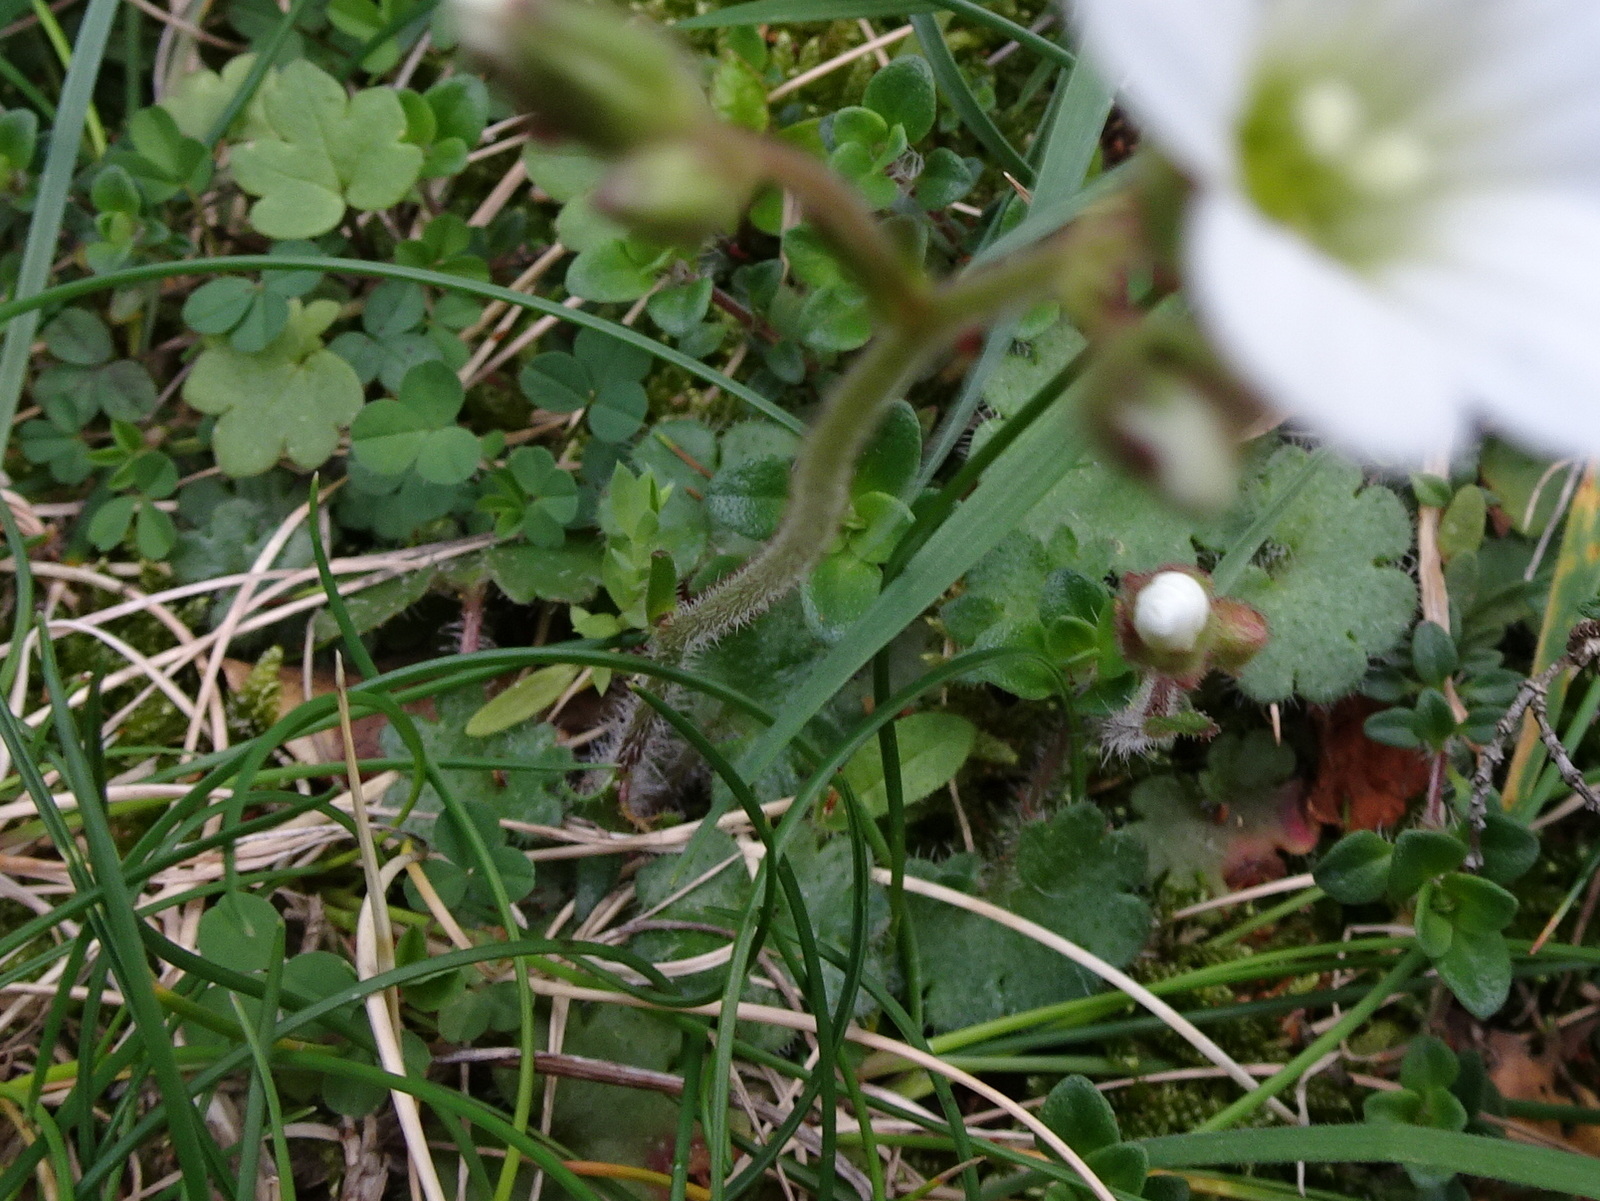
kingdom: Plantae
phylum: Tracheophyta
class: Magnoliopsida
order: Saxifragales
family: Saxifragaceae
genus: Saxifraga
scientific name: Saxifraga granulata
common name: Meadow saxifrage
